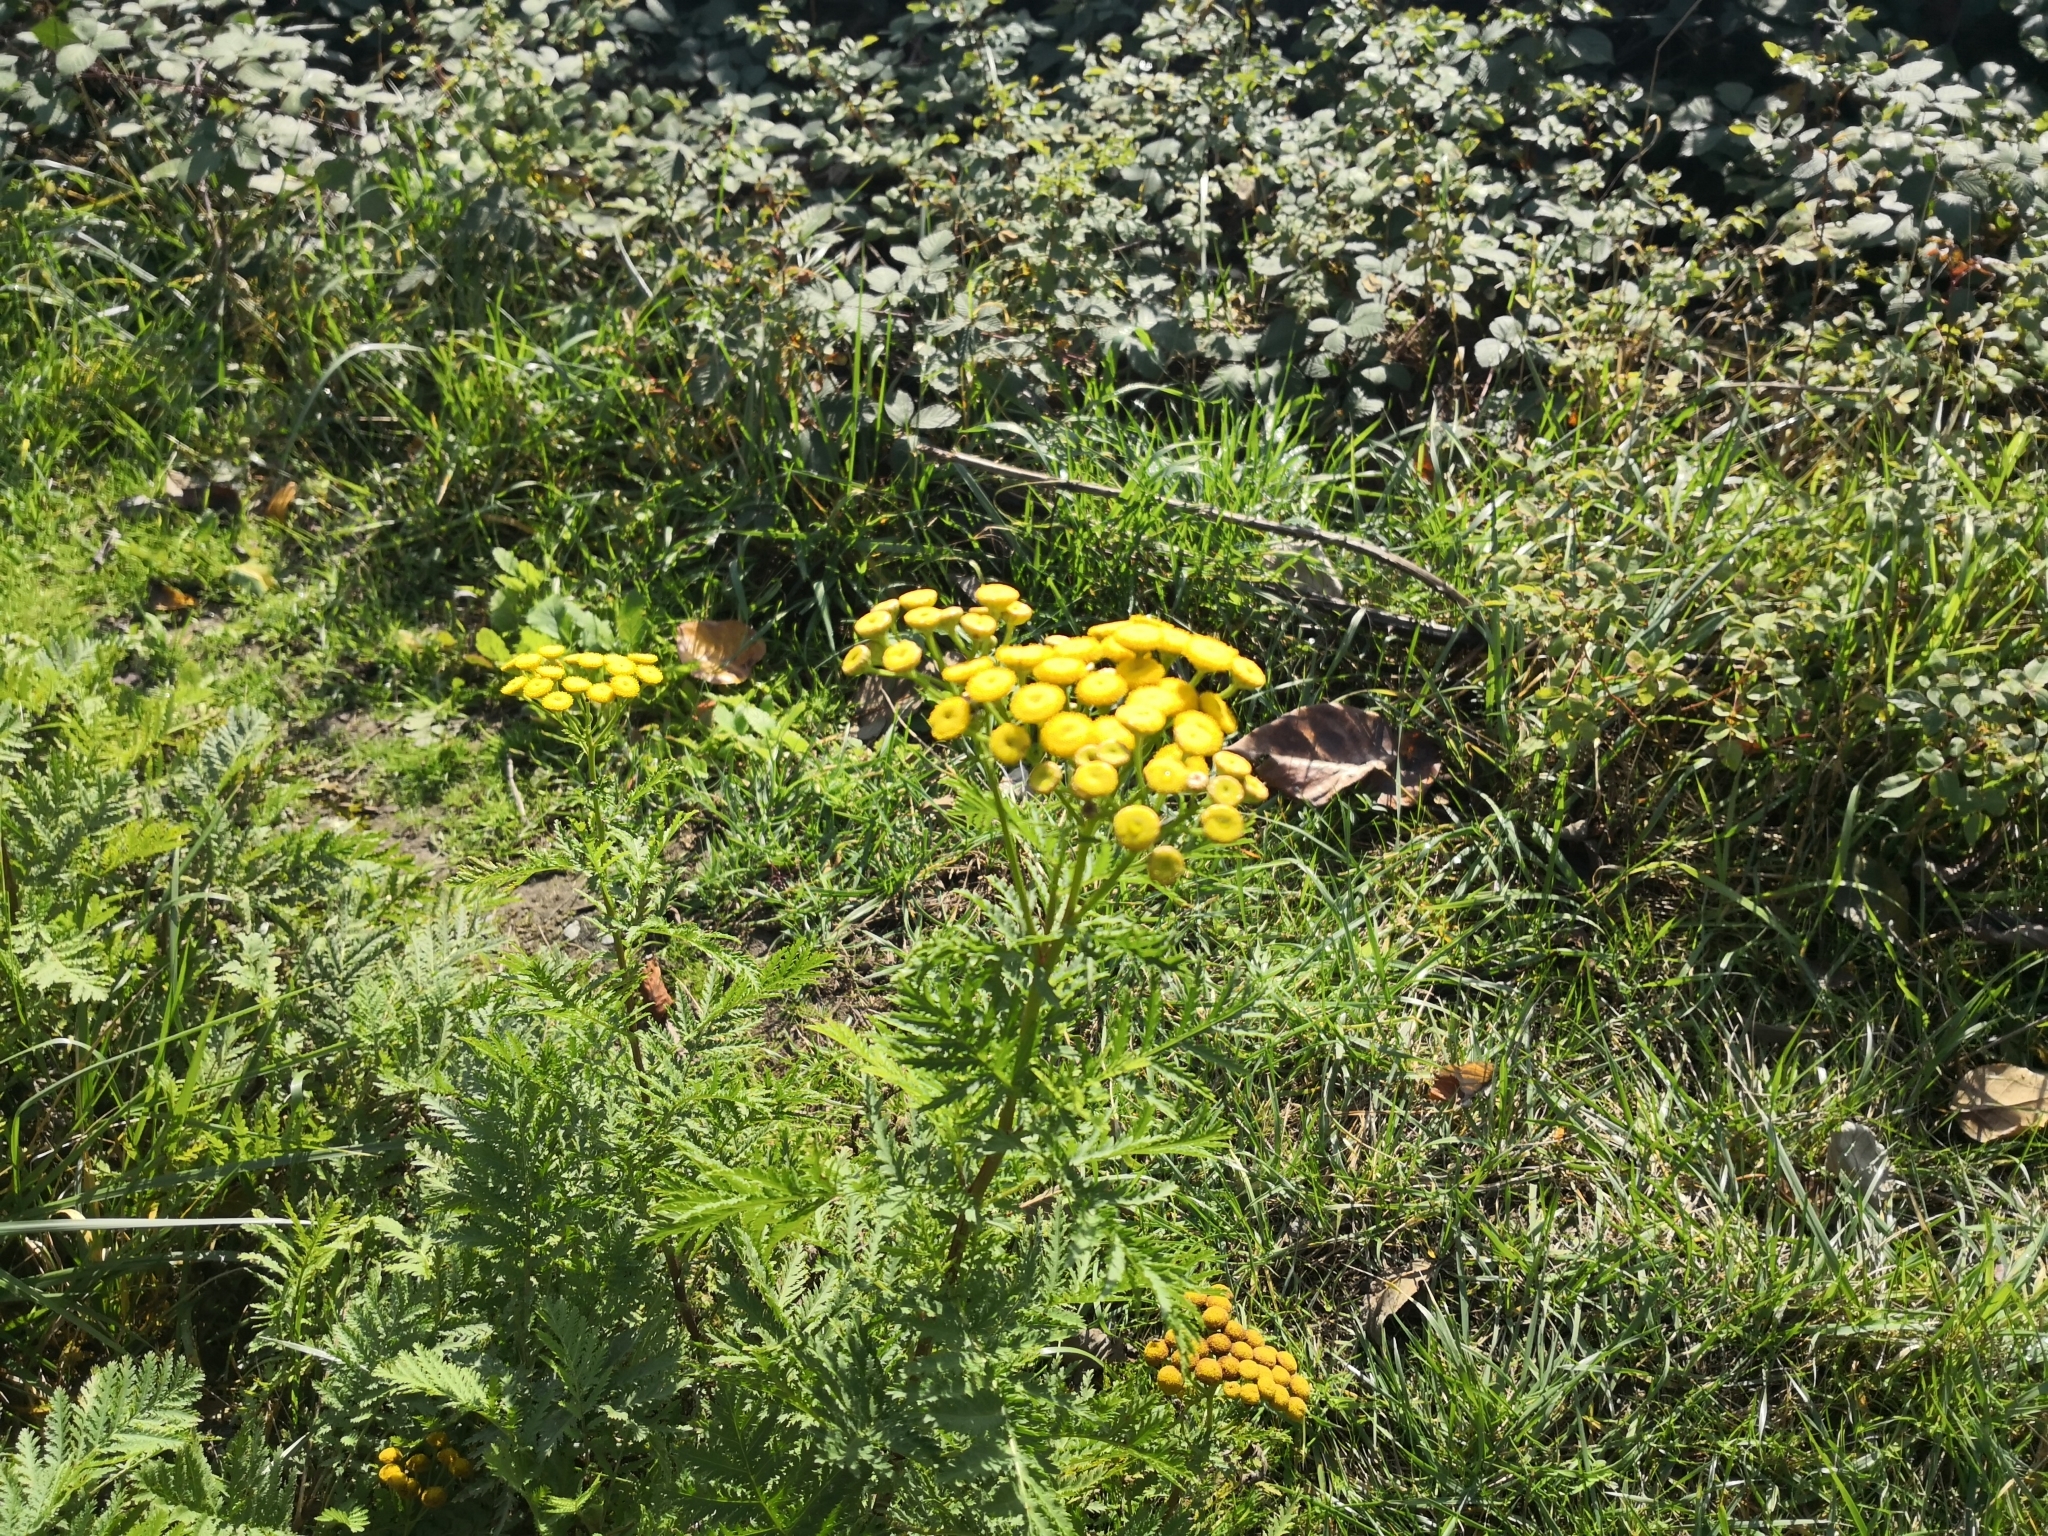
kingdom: Plantae
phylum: Tracheophyta
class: Magnoliopsida
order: Asterales
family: Asteraceae
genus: Tanacetum
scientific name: Tanacetum vulgare
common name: Common tansy
